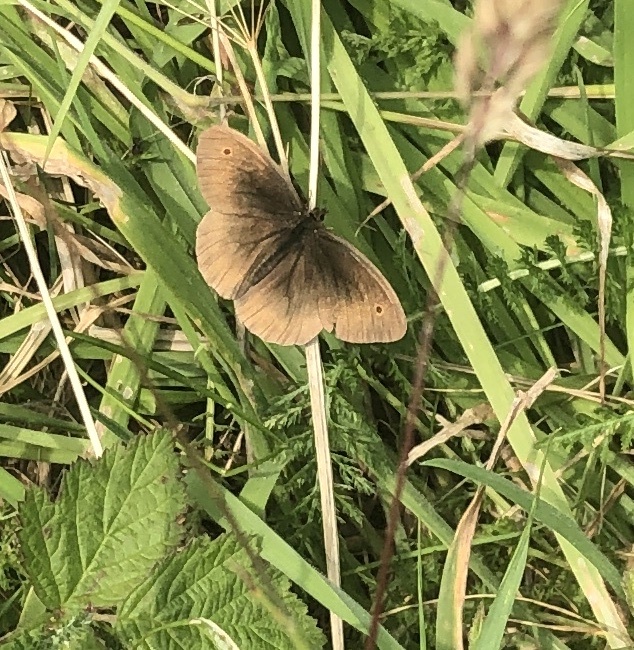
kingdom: Animalia
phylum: Arthropoda
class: Insecta
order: Lepidoptera
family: Nymphalidae
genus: Maniola
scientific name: Maniola jurtina
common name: Meadow brown
